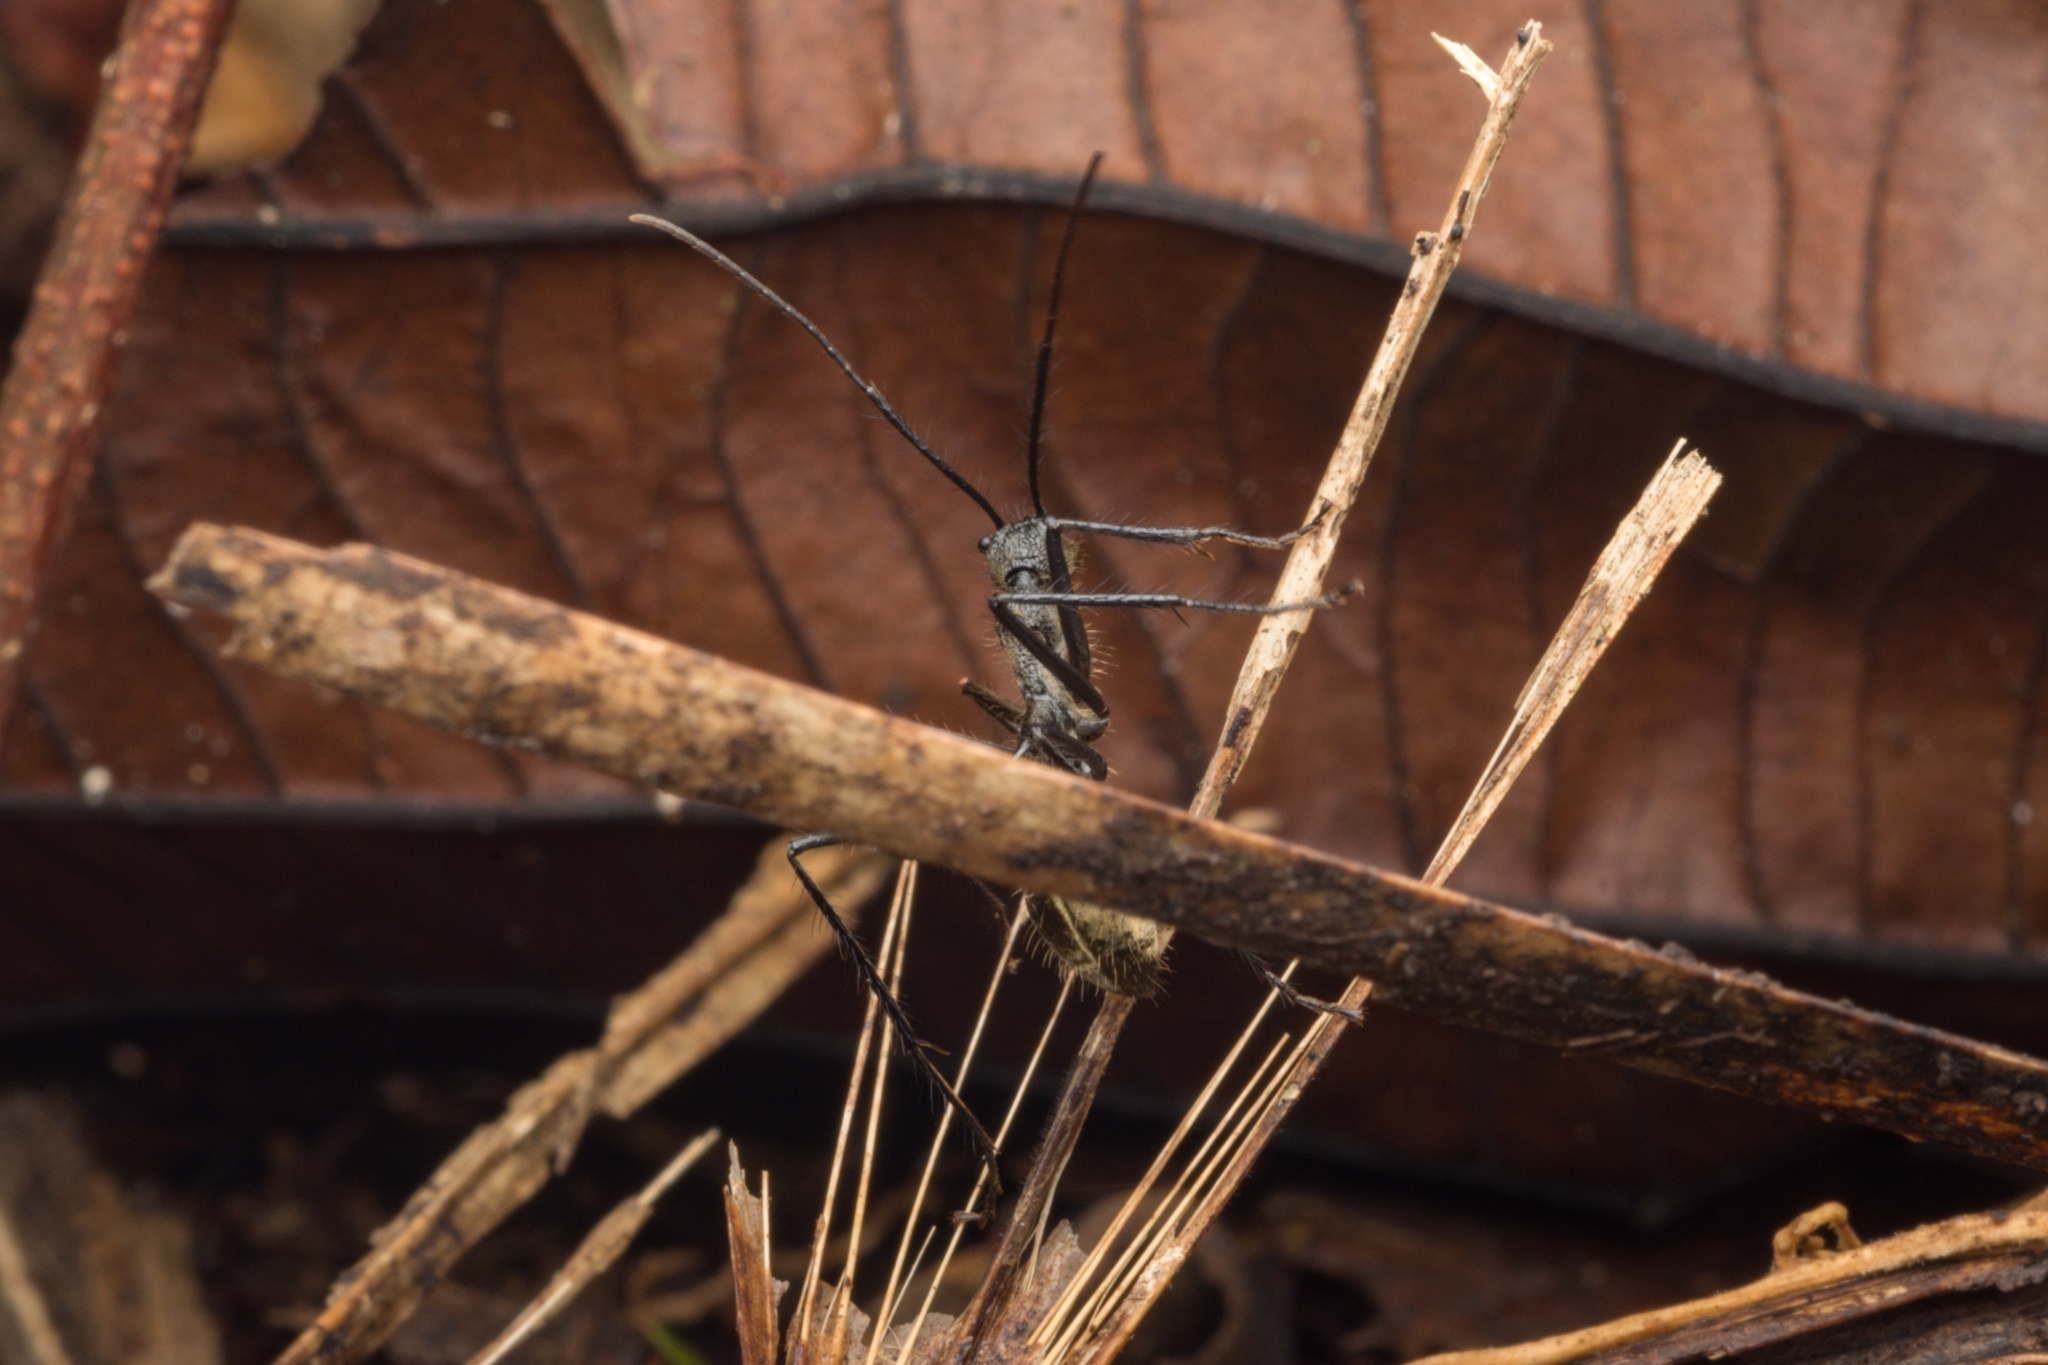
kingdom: Animalia
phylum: Arthropoda
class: Insecta
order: Hymenoptera
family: Formicidae
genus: Dolichoderus
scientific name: Dolichoderus rugosus
